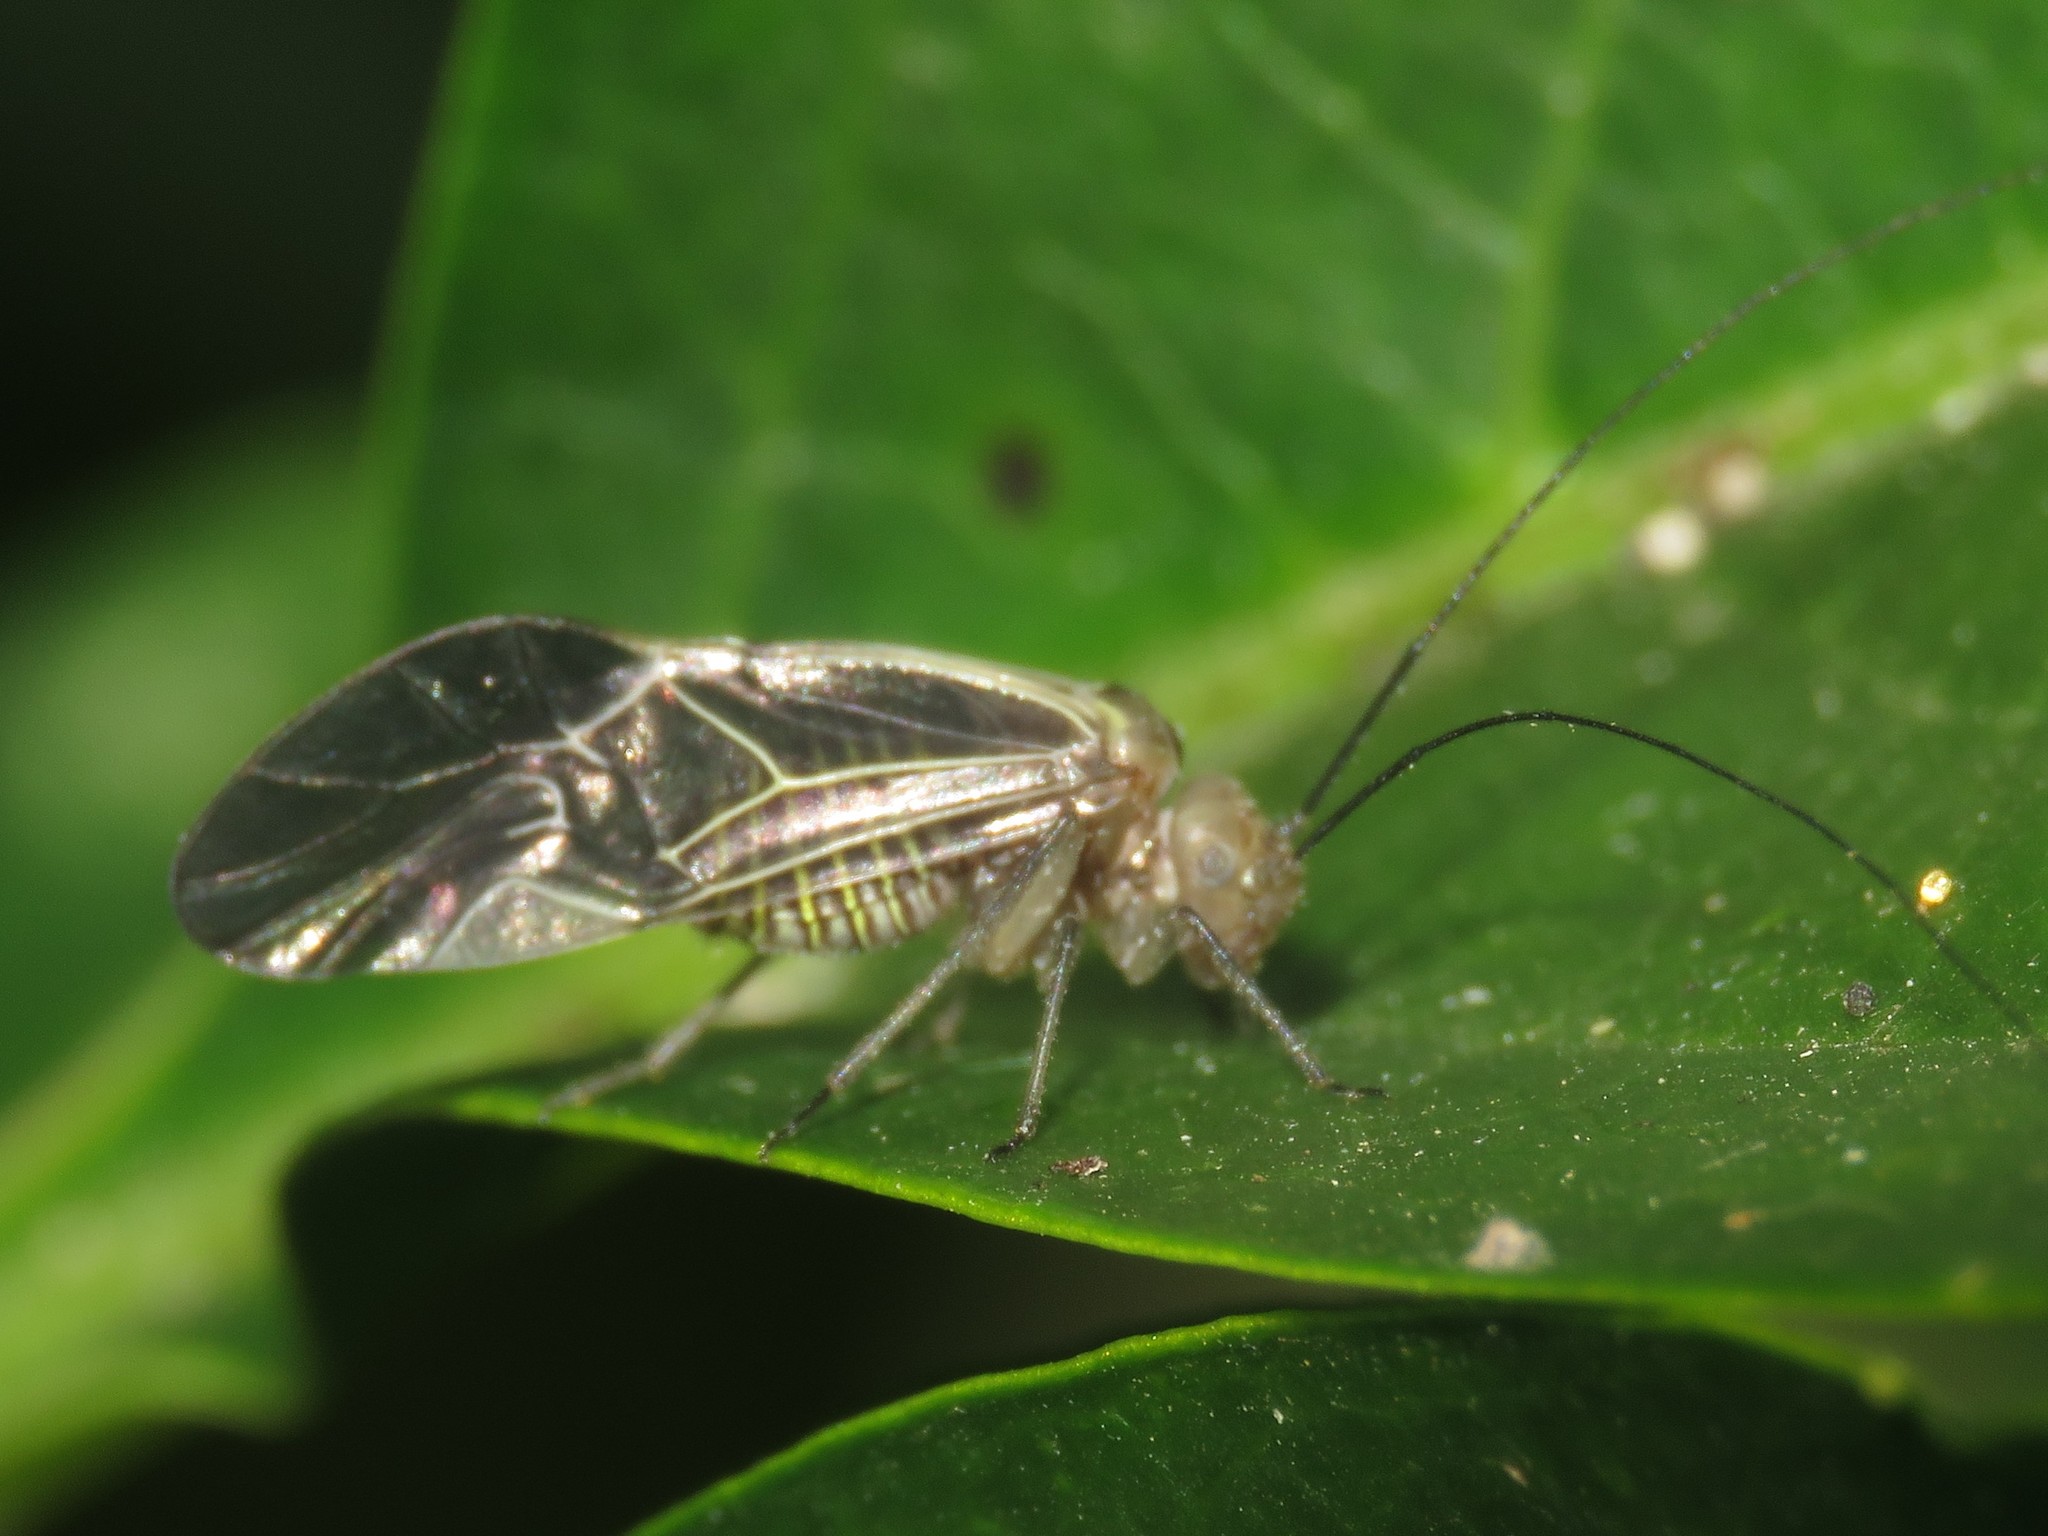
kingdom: Animalia
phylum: Arthropoda
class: Insecta
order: Psocodea
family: Psocidae
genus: Cerastipsocus
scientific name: Cerastipsocus venosus
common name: Tree cattle
